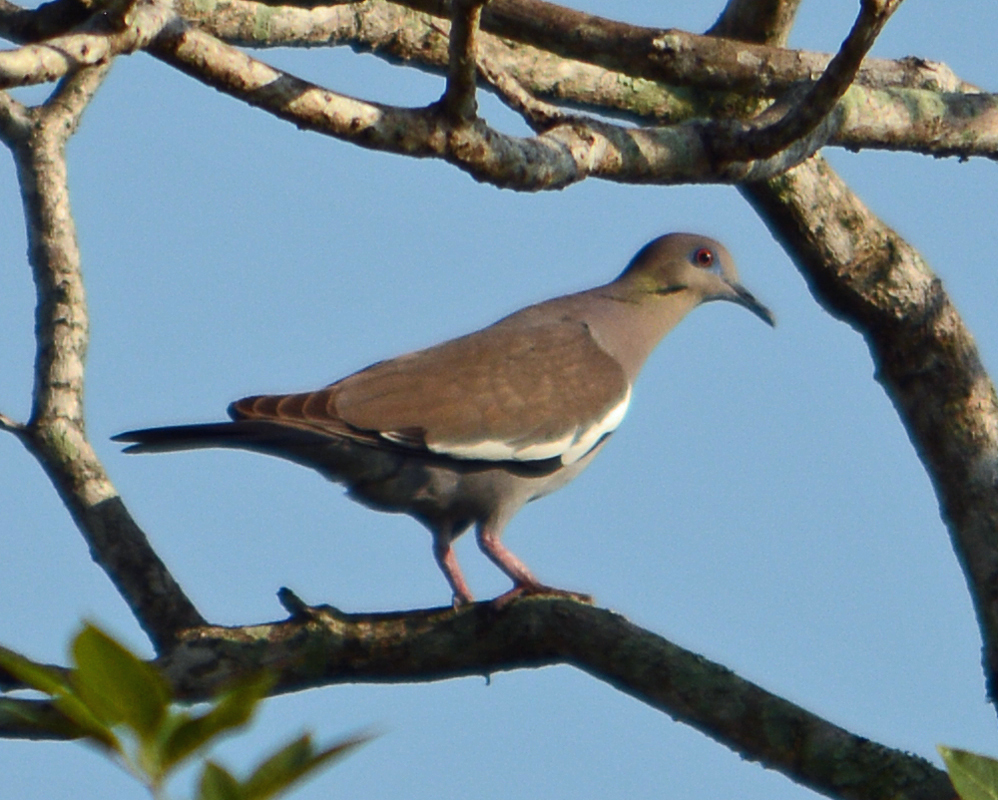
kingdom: Animalia
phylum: Chordata
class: Aves
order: Columbiformes
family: Columbidae
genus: Zenaida
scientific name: Zenaida asiatica
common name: White-winged dove
